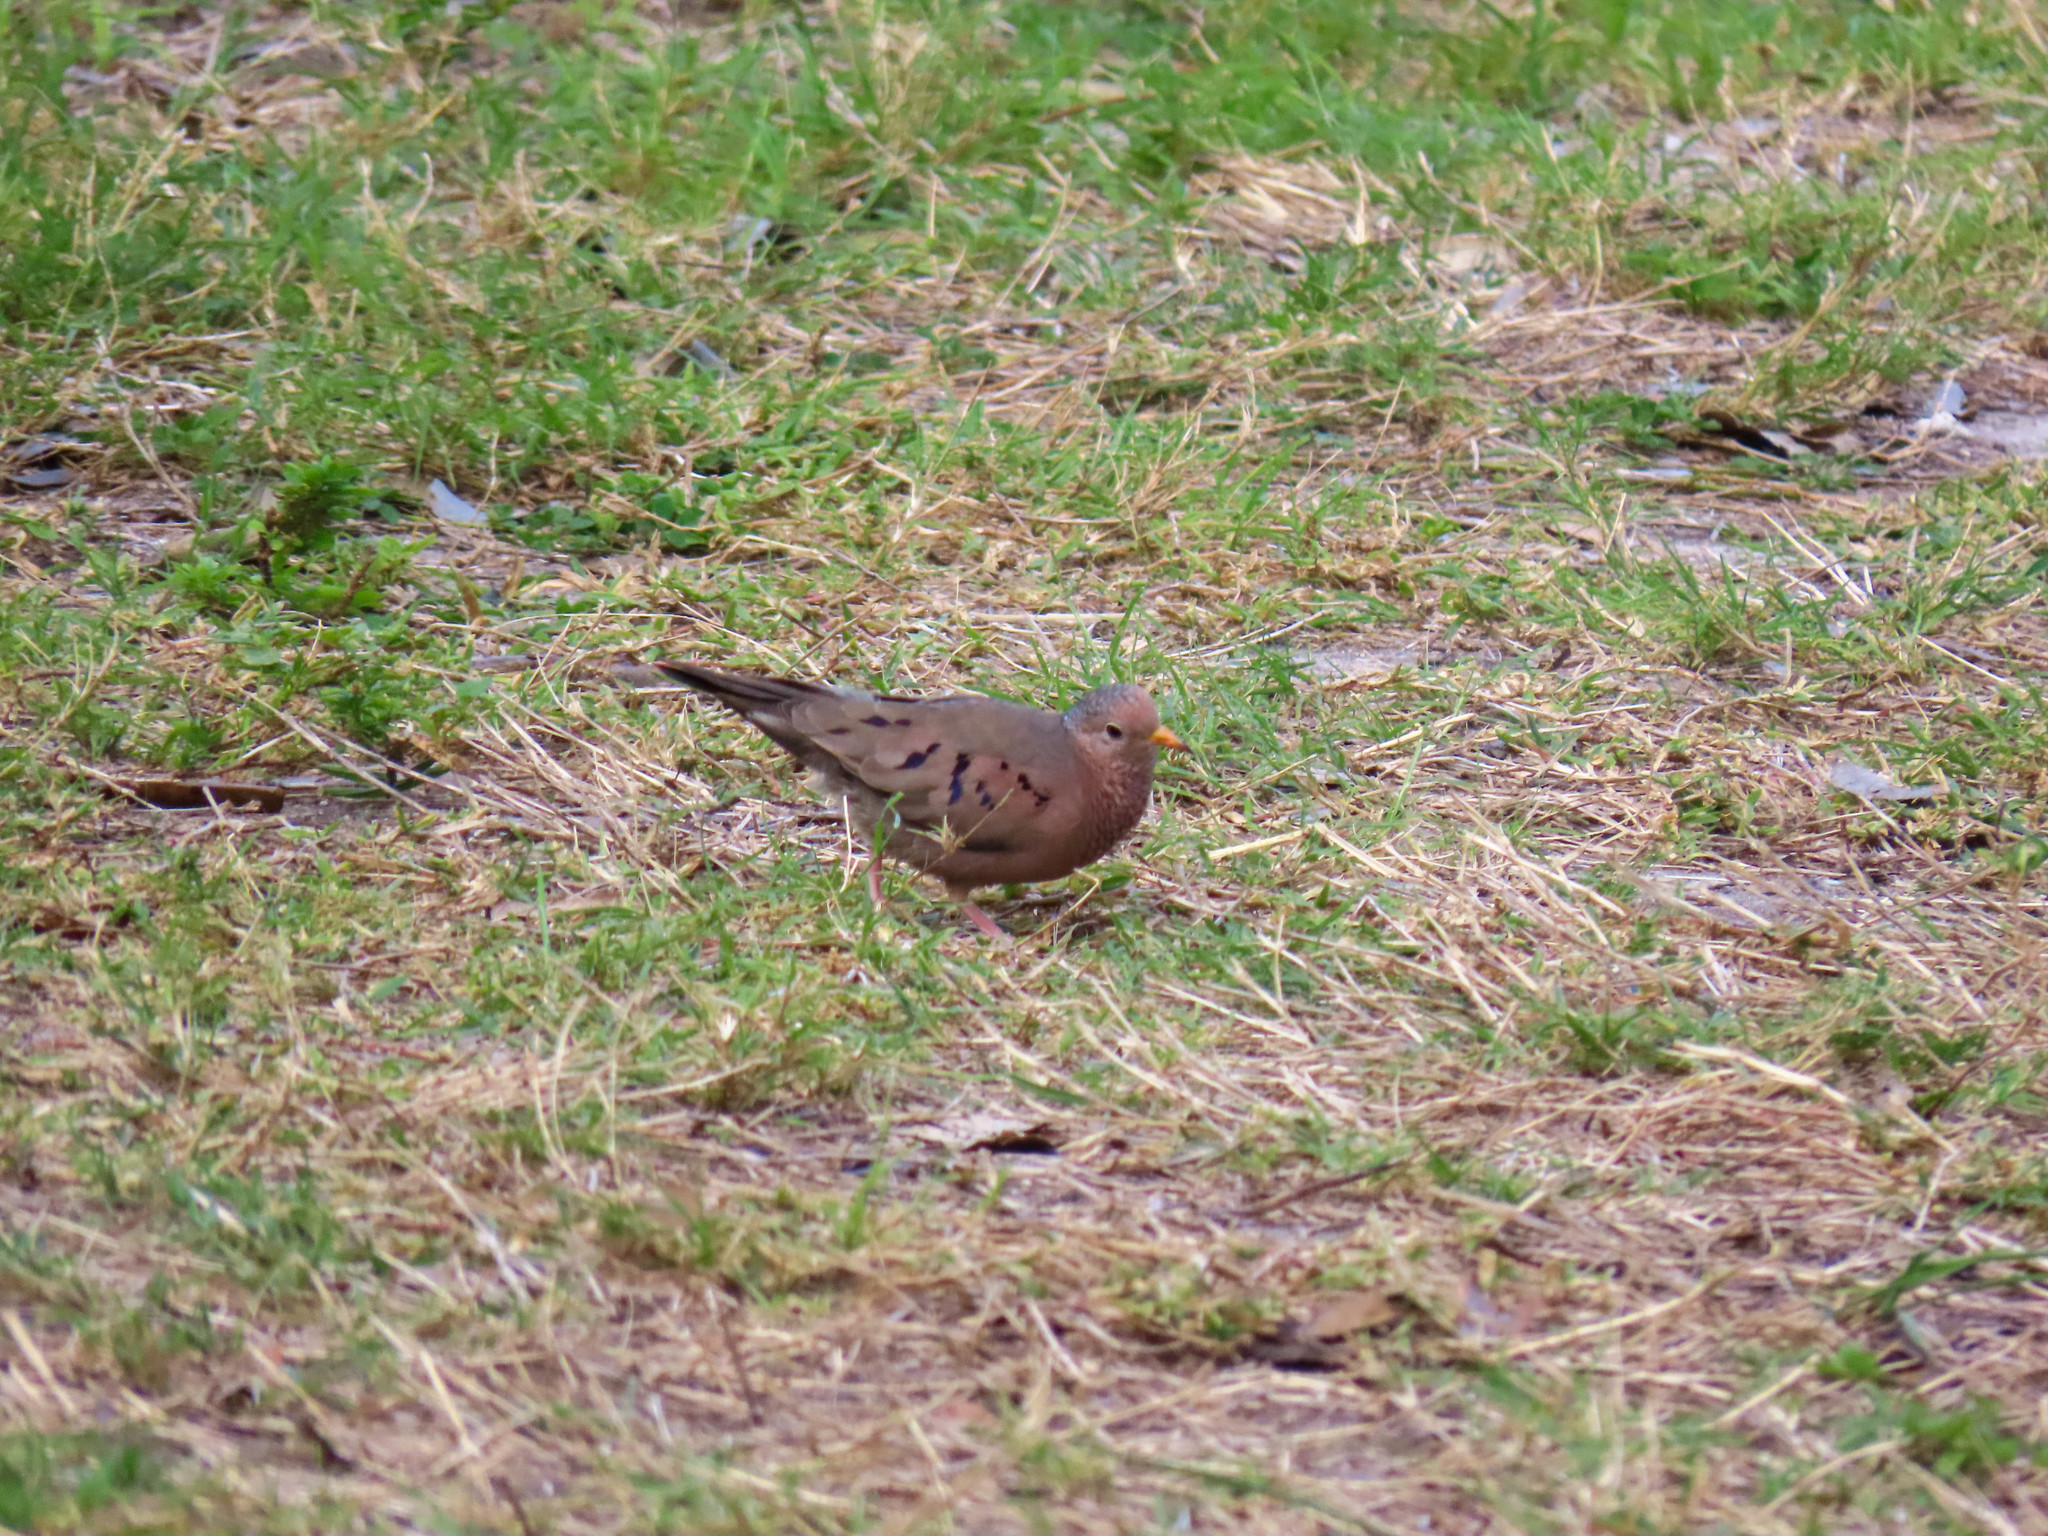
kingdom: Animalia
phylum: Chordata
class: Aves
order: Columbiformes
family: Columbidae
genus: Columbina
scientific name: Columbina passerina
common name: Common ground-dove
